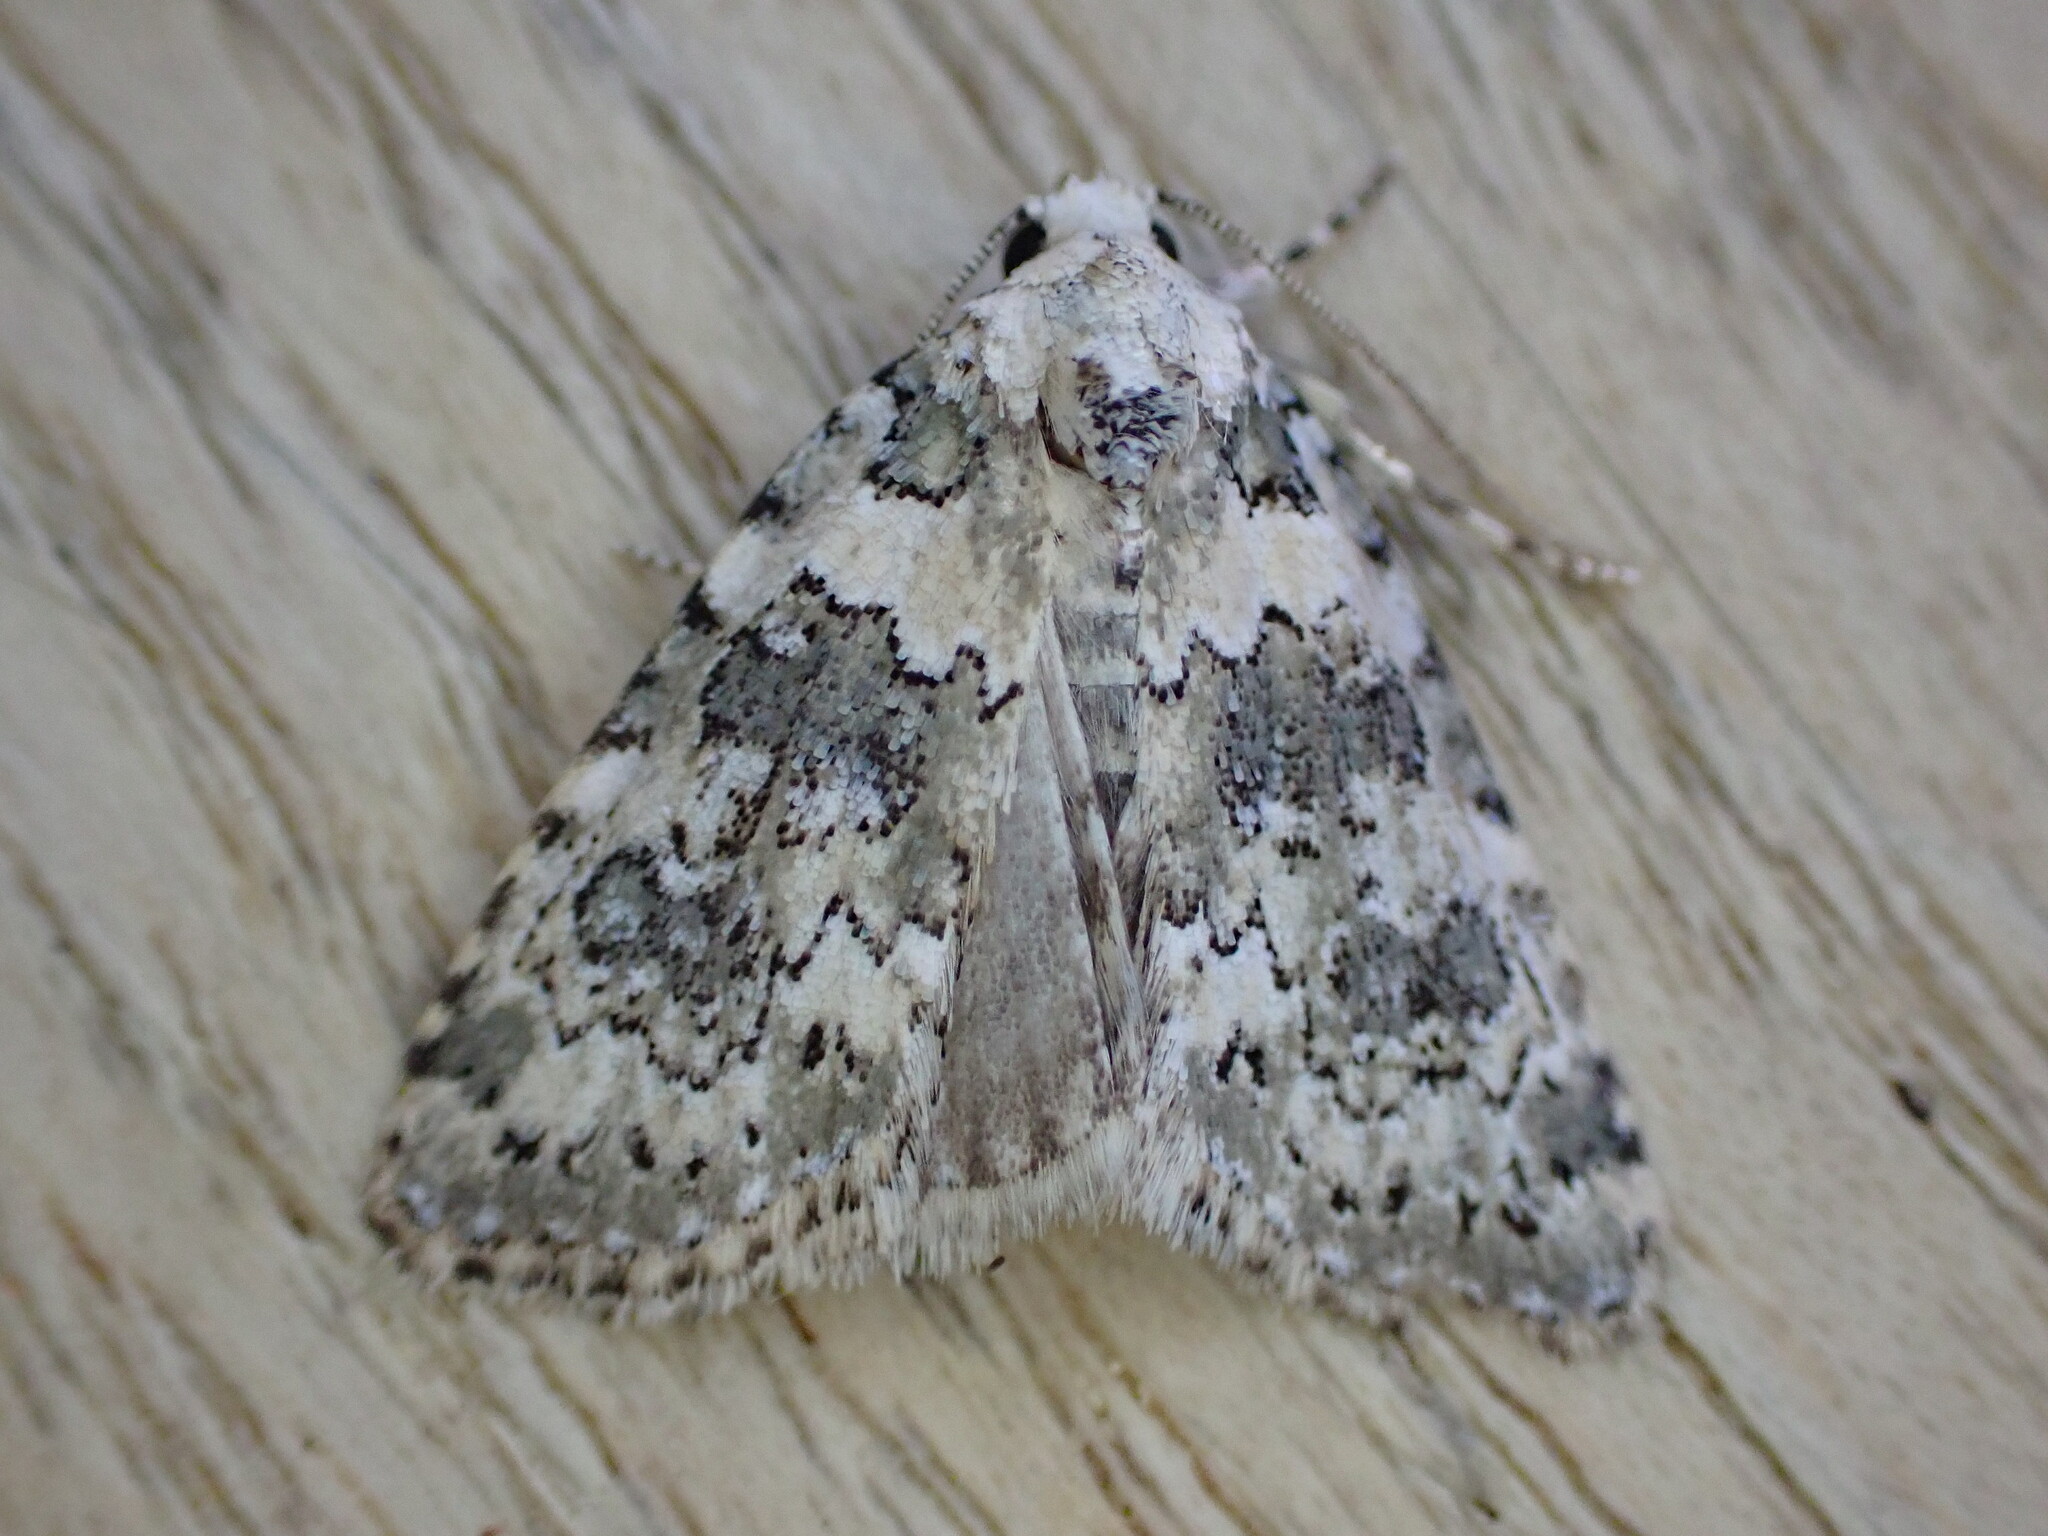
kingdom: Animalia
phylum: Arthropoda
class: Insecta
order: Lepidoptera
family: Noctuidae
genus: Bryophila
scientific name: Bryophila domestica
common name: Marbled beauty
